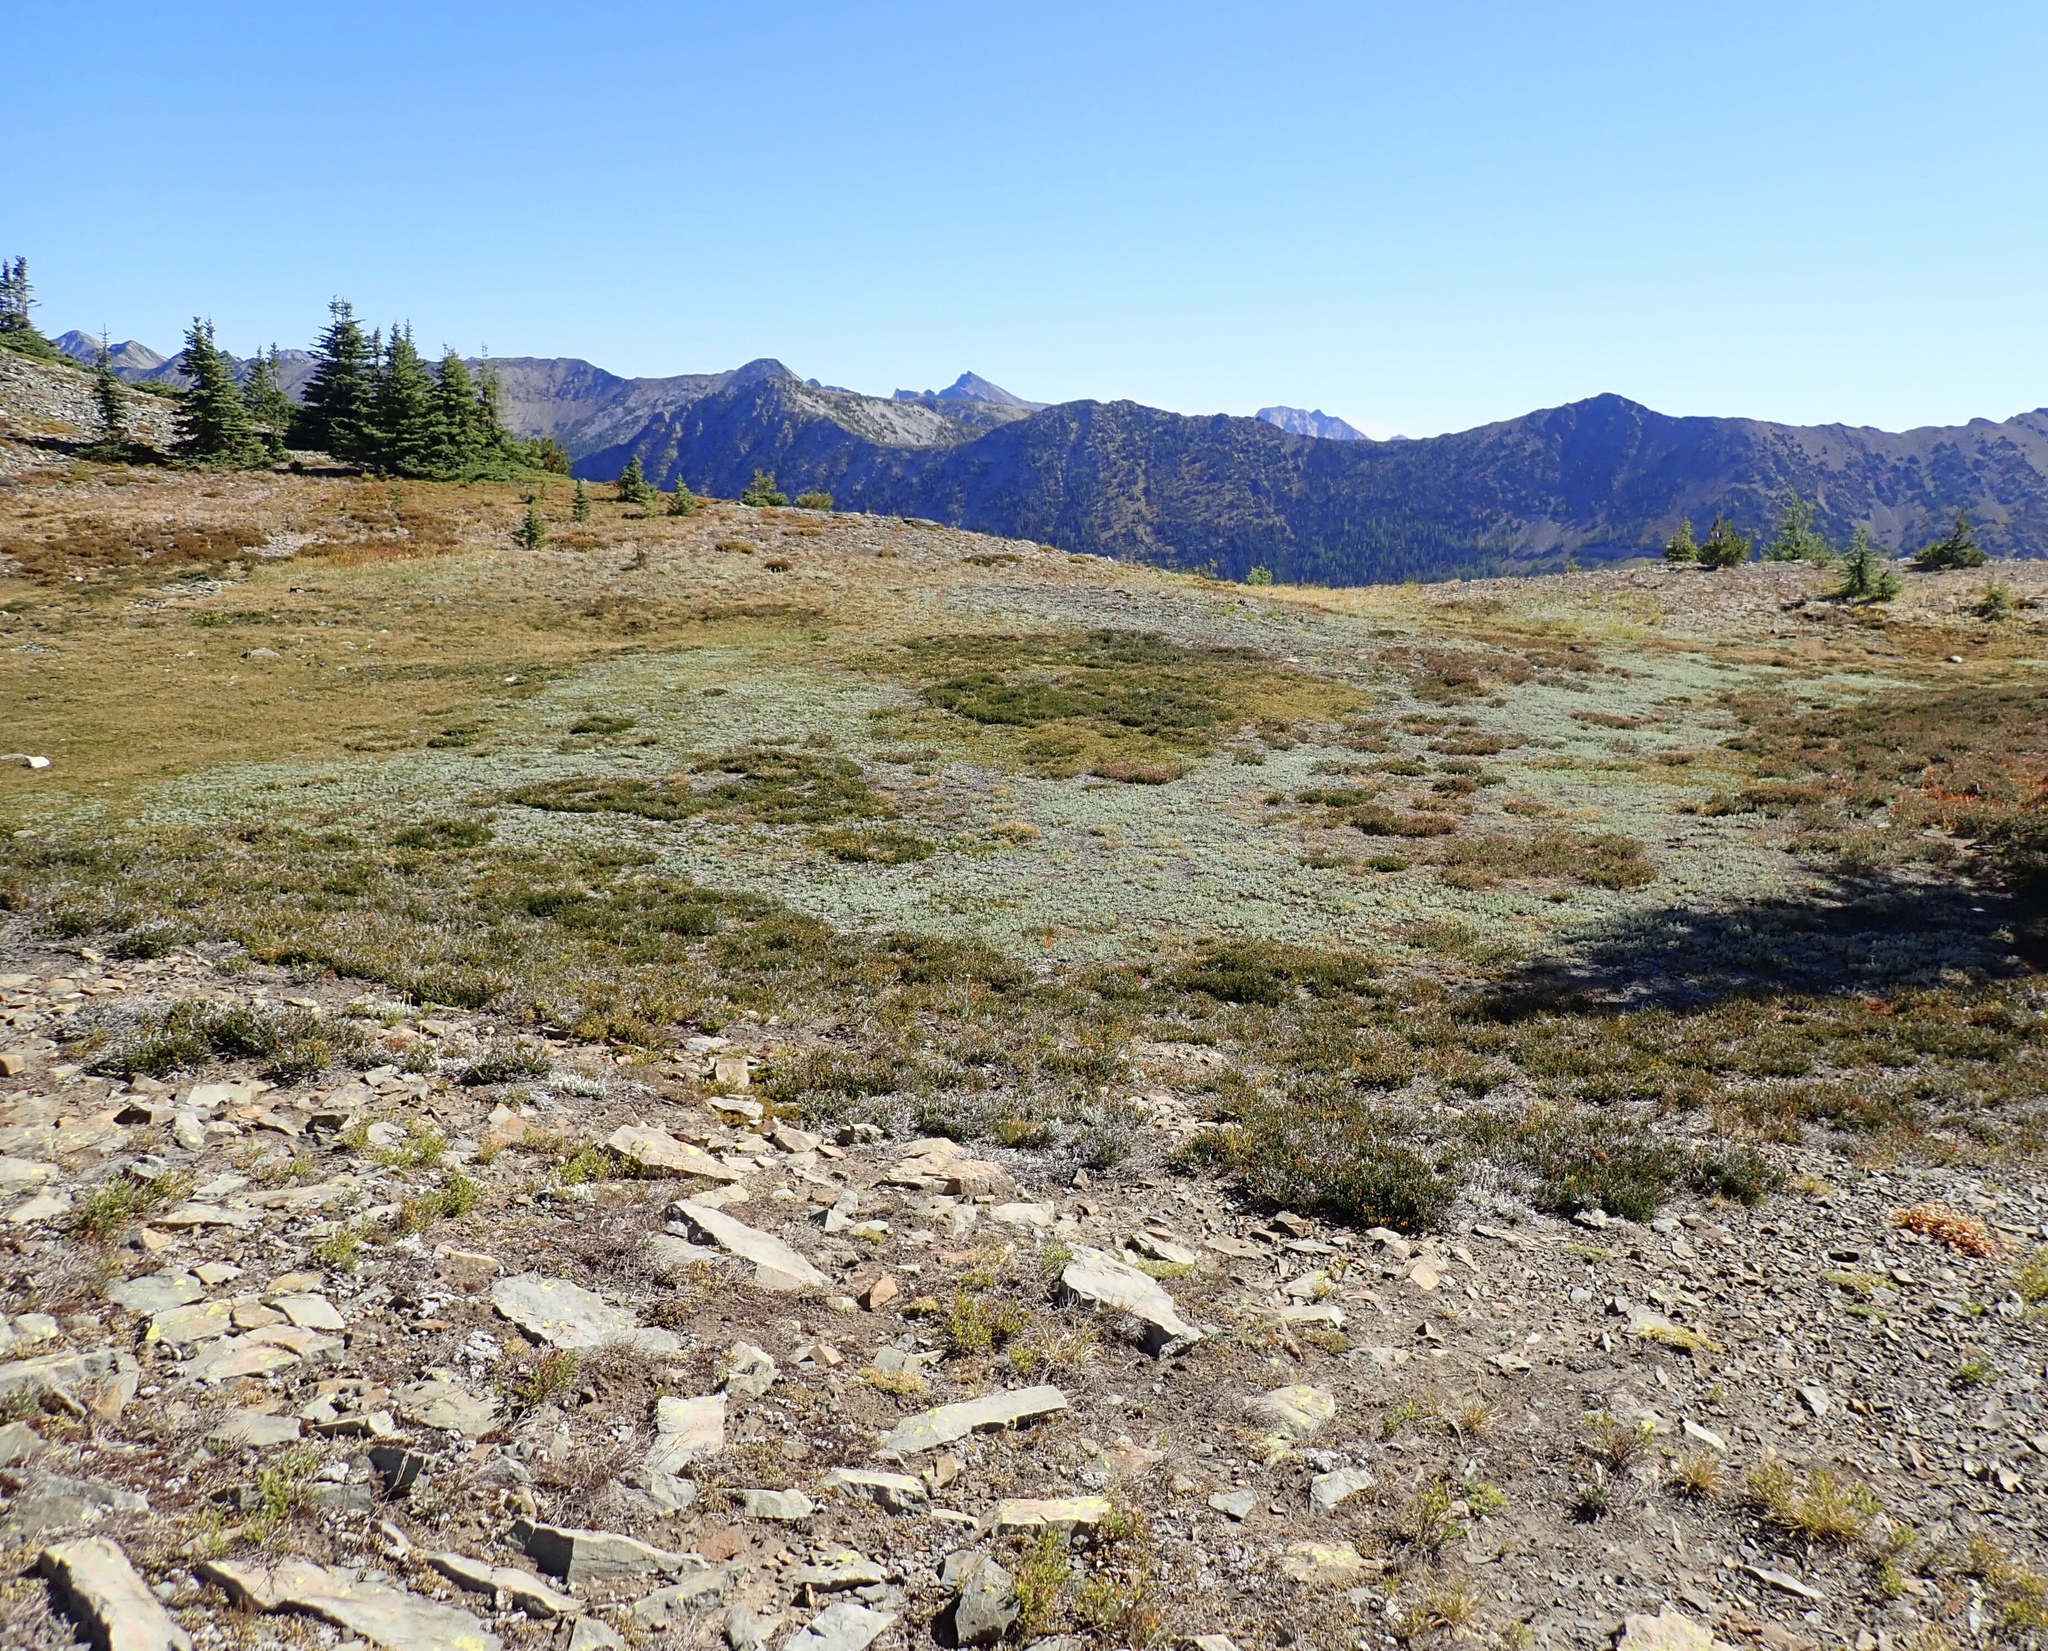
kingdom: Plantae
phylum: Tracheophyta
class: Magnoliopsida
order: Asterales
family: Asteraceae
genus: Antennaria
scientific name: Antennaria lanata
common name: Woolly pussytoes
